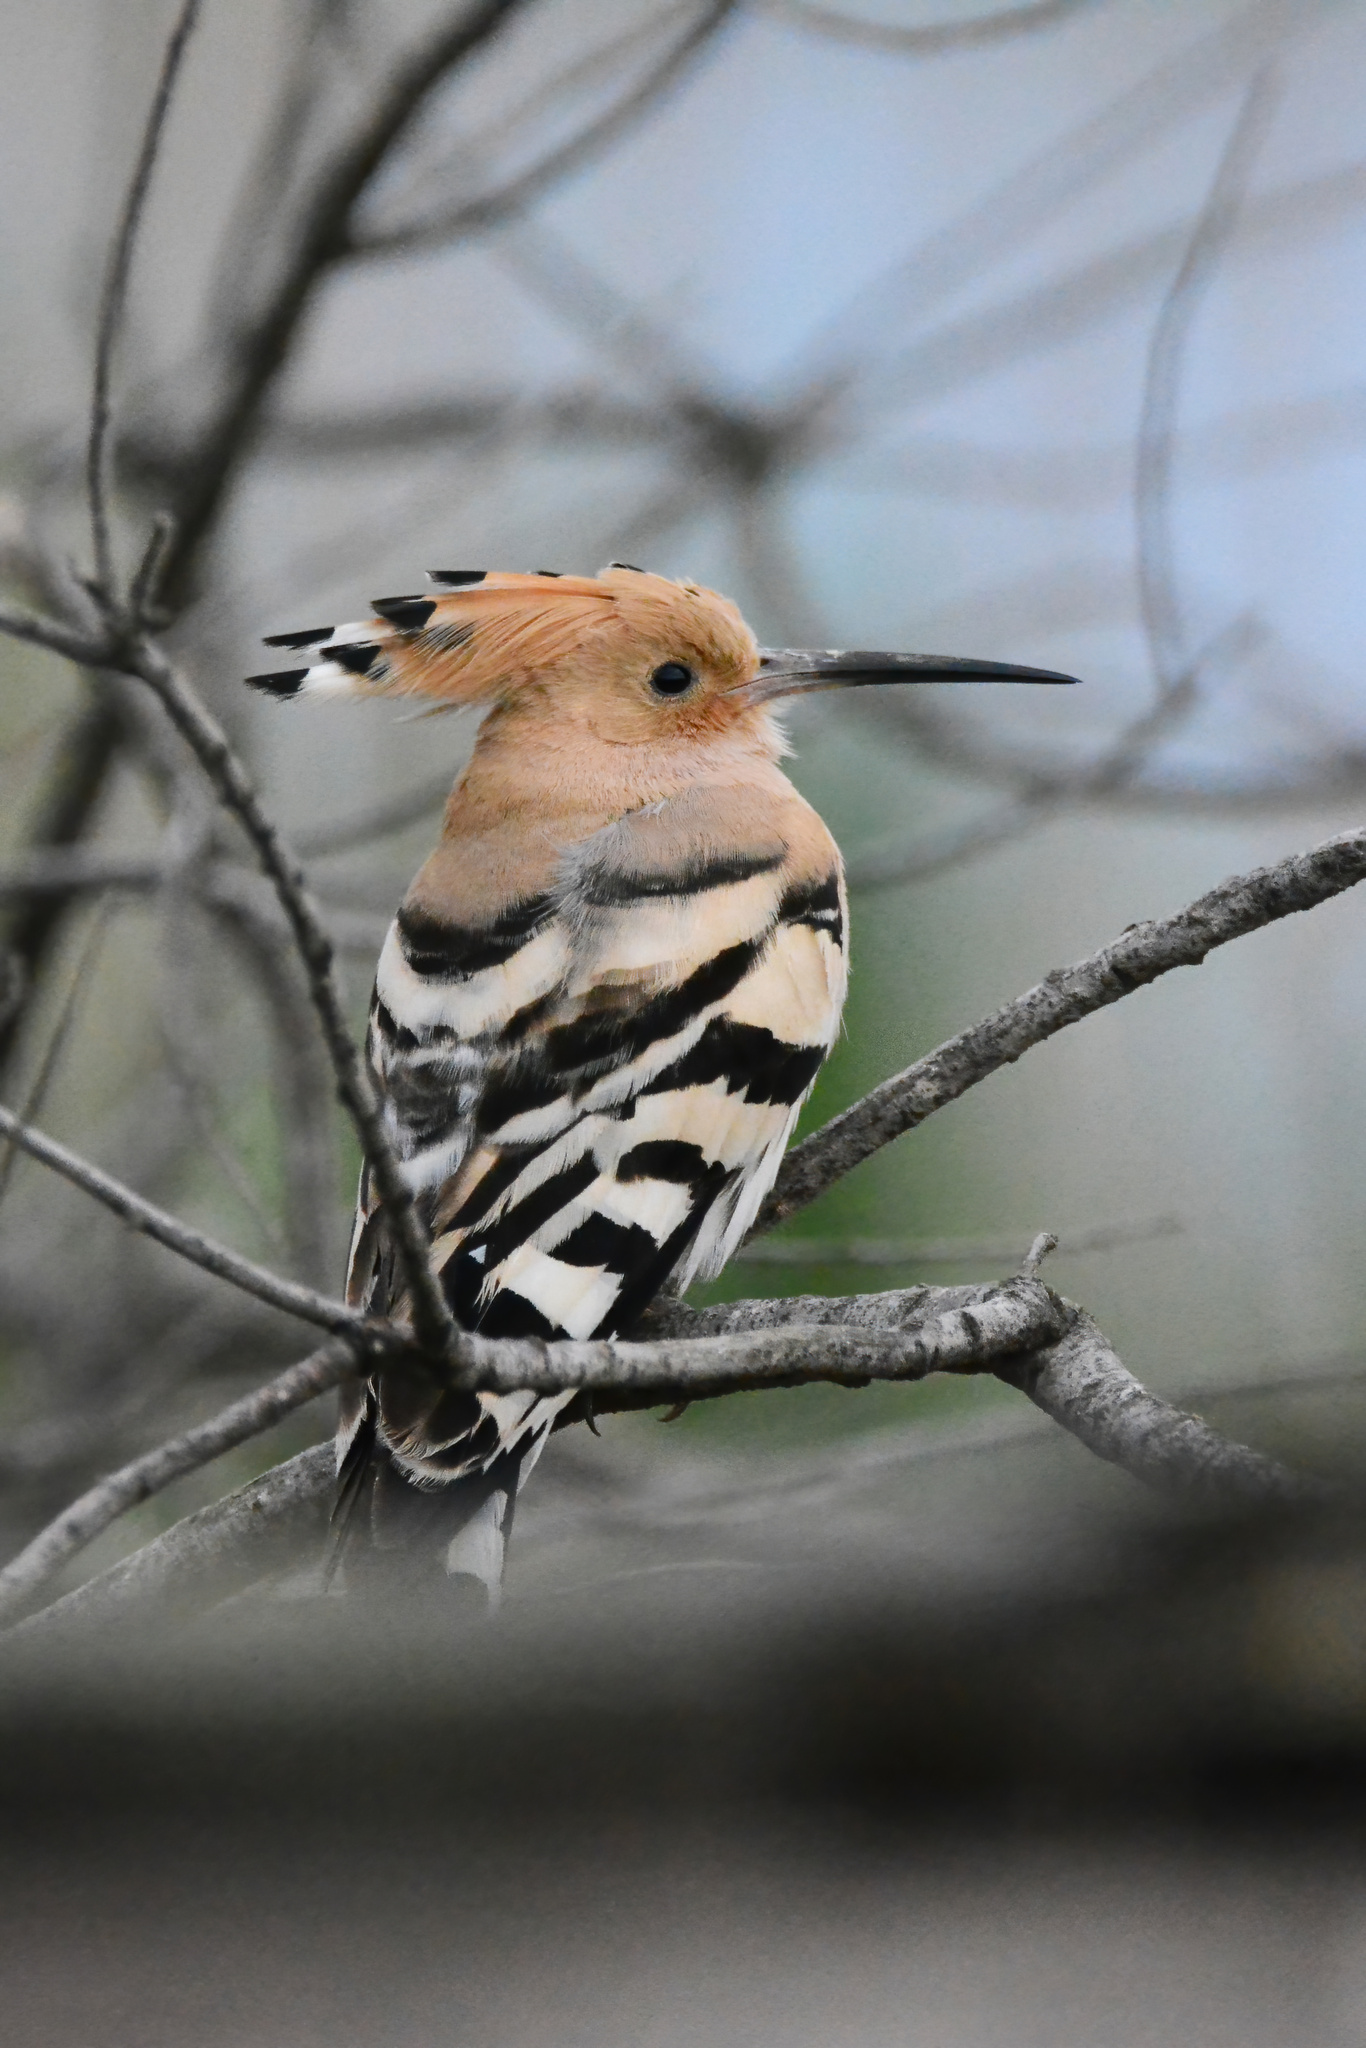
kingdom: Animalia
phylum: Chordata
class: Aves
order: Bucerotiformes
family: Upupidae
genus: Upupa
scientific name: Upupa epops
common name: Eurasian hoopoe
